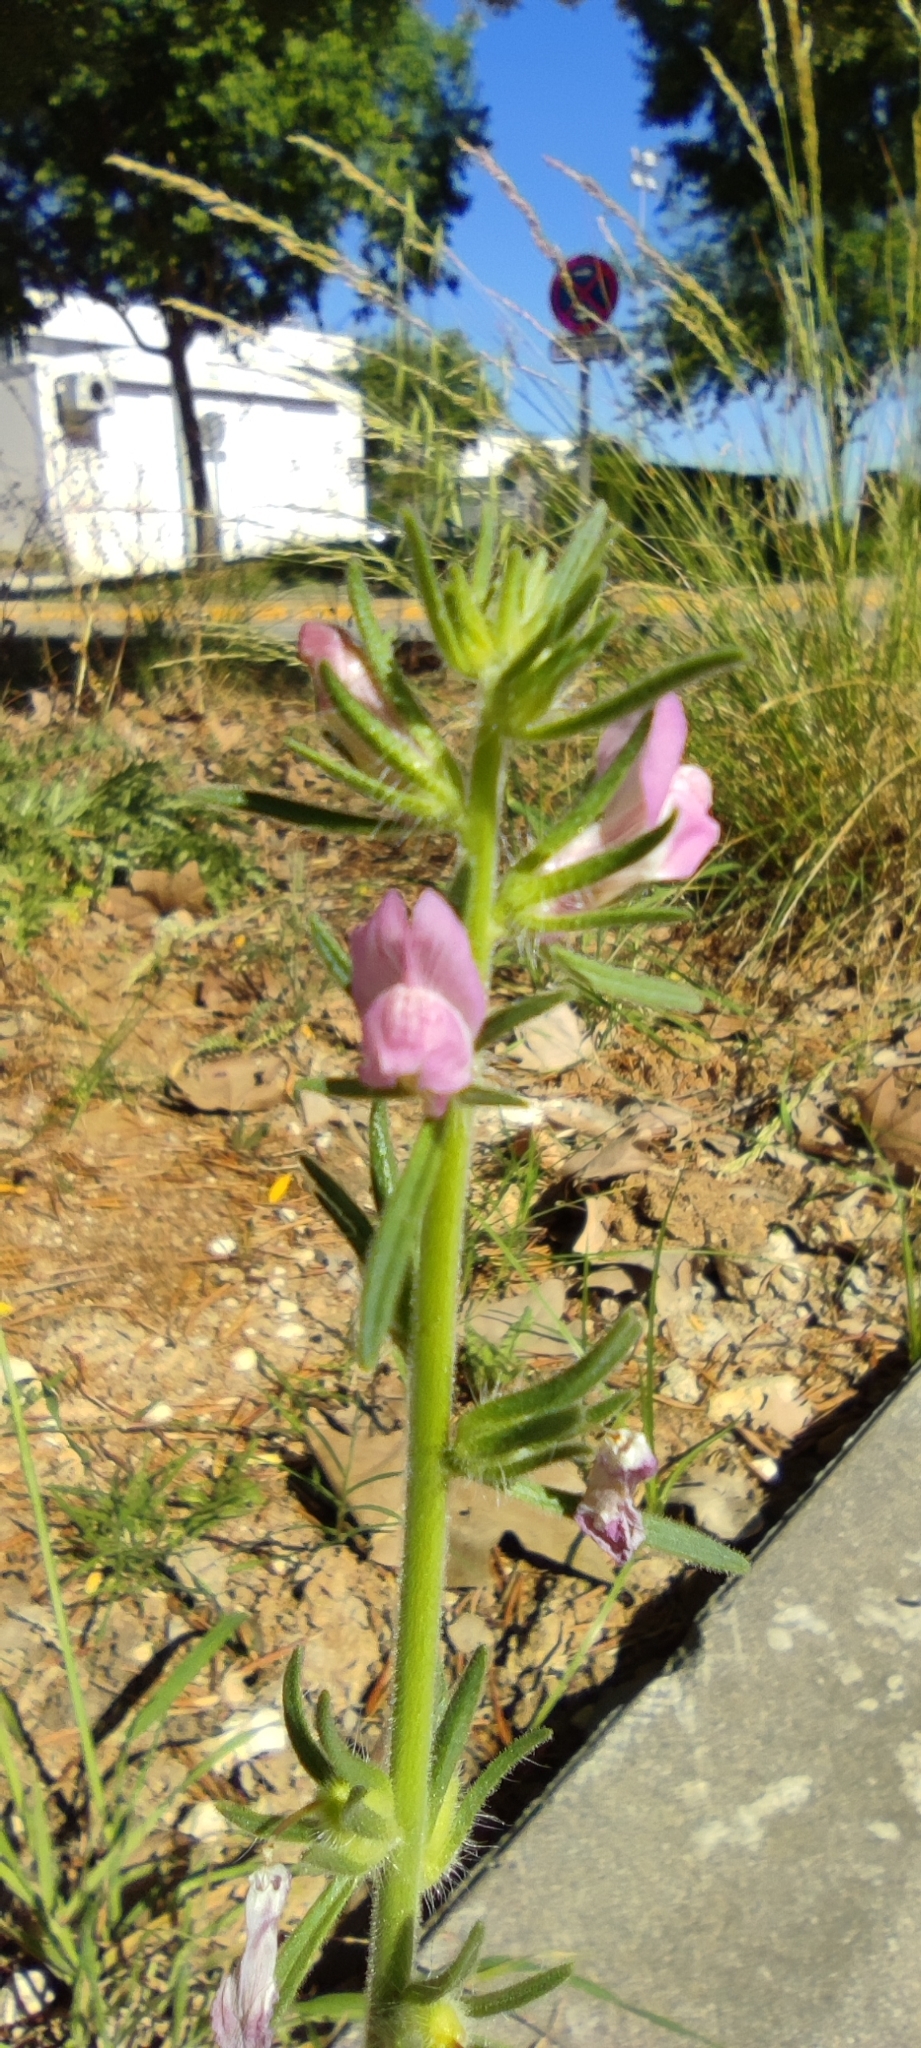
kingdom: Plantae
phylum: Tracheophyta
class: Magnoliopsida
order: Lamiales
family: Plantaginaceae
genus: Misopates
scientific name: Misopates orontium
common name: Weasel's-snout
